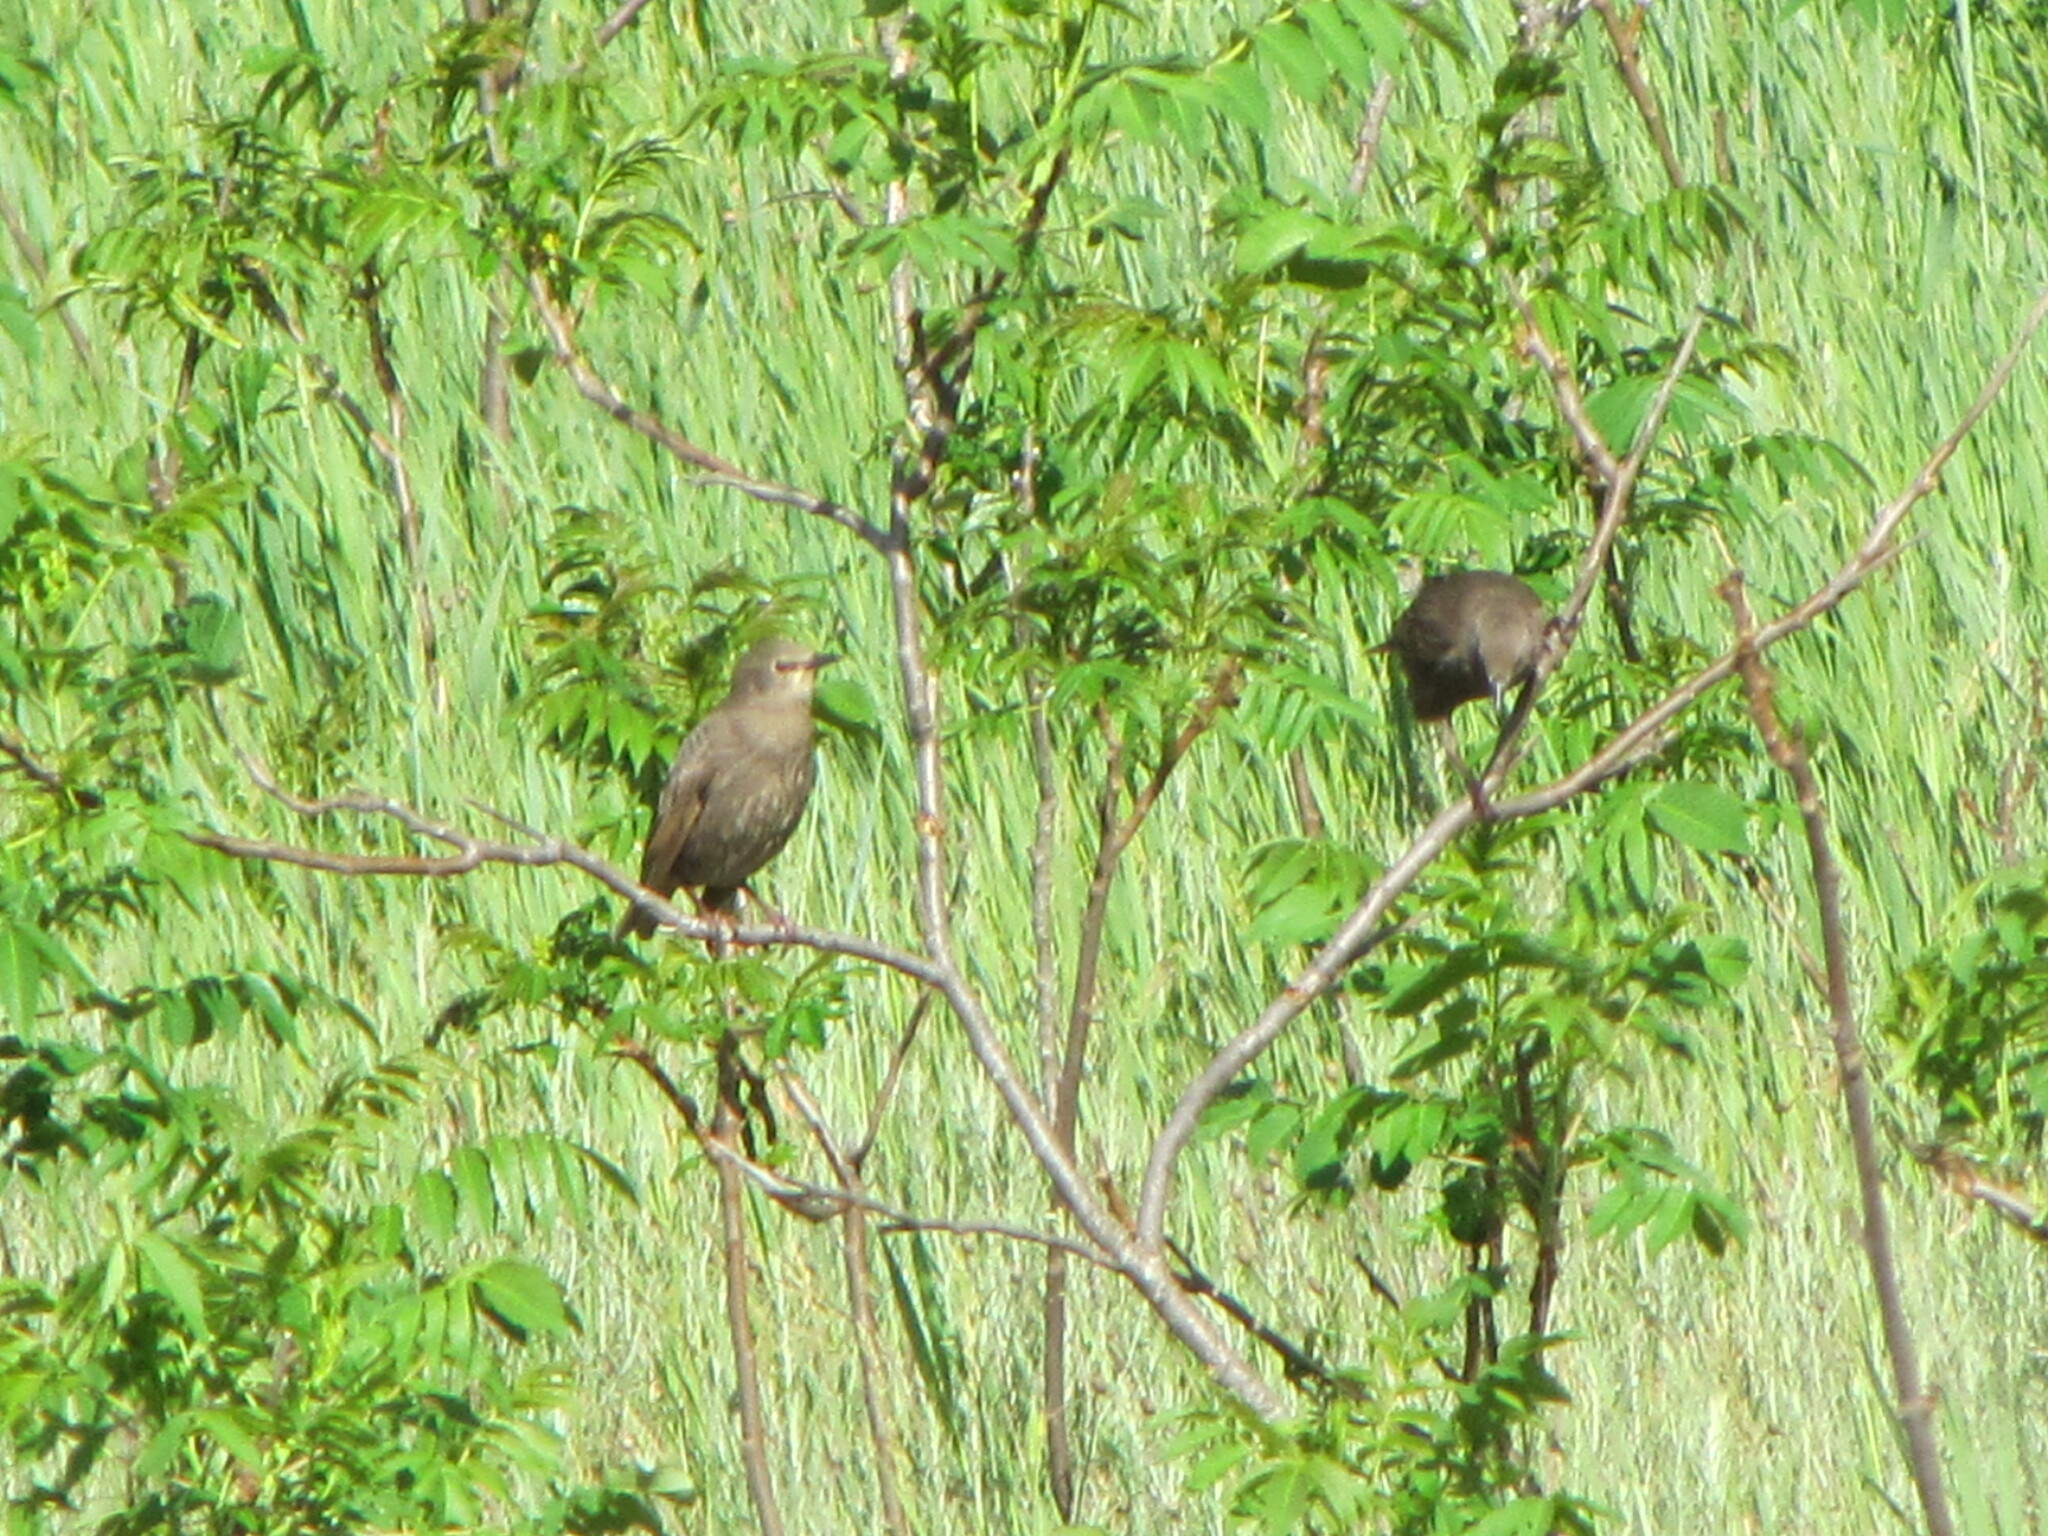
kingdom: Animalia
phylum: Chordata
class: Aves
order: Passeriformes
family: Sturnidae
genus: Sturnus
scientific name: Sturnus vulgaris
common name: Common starling
